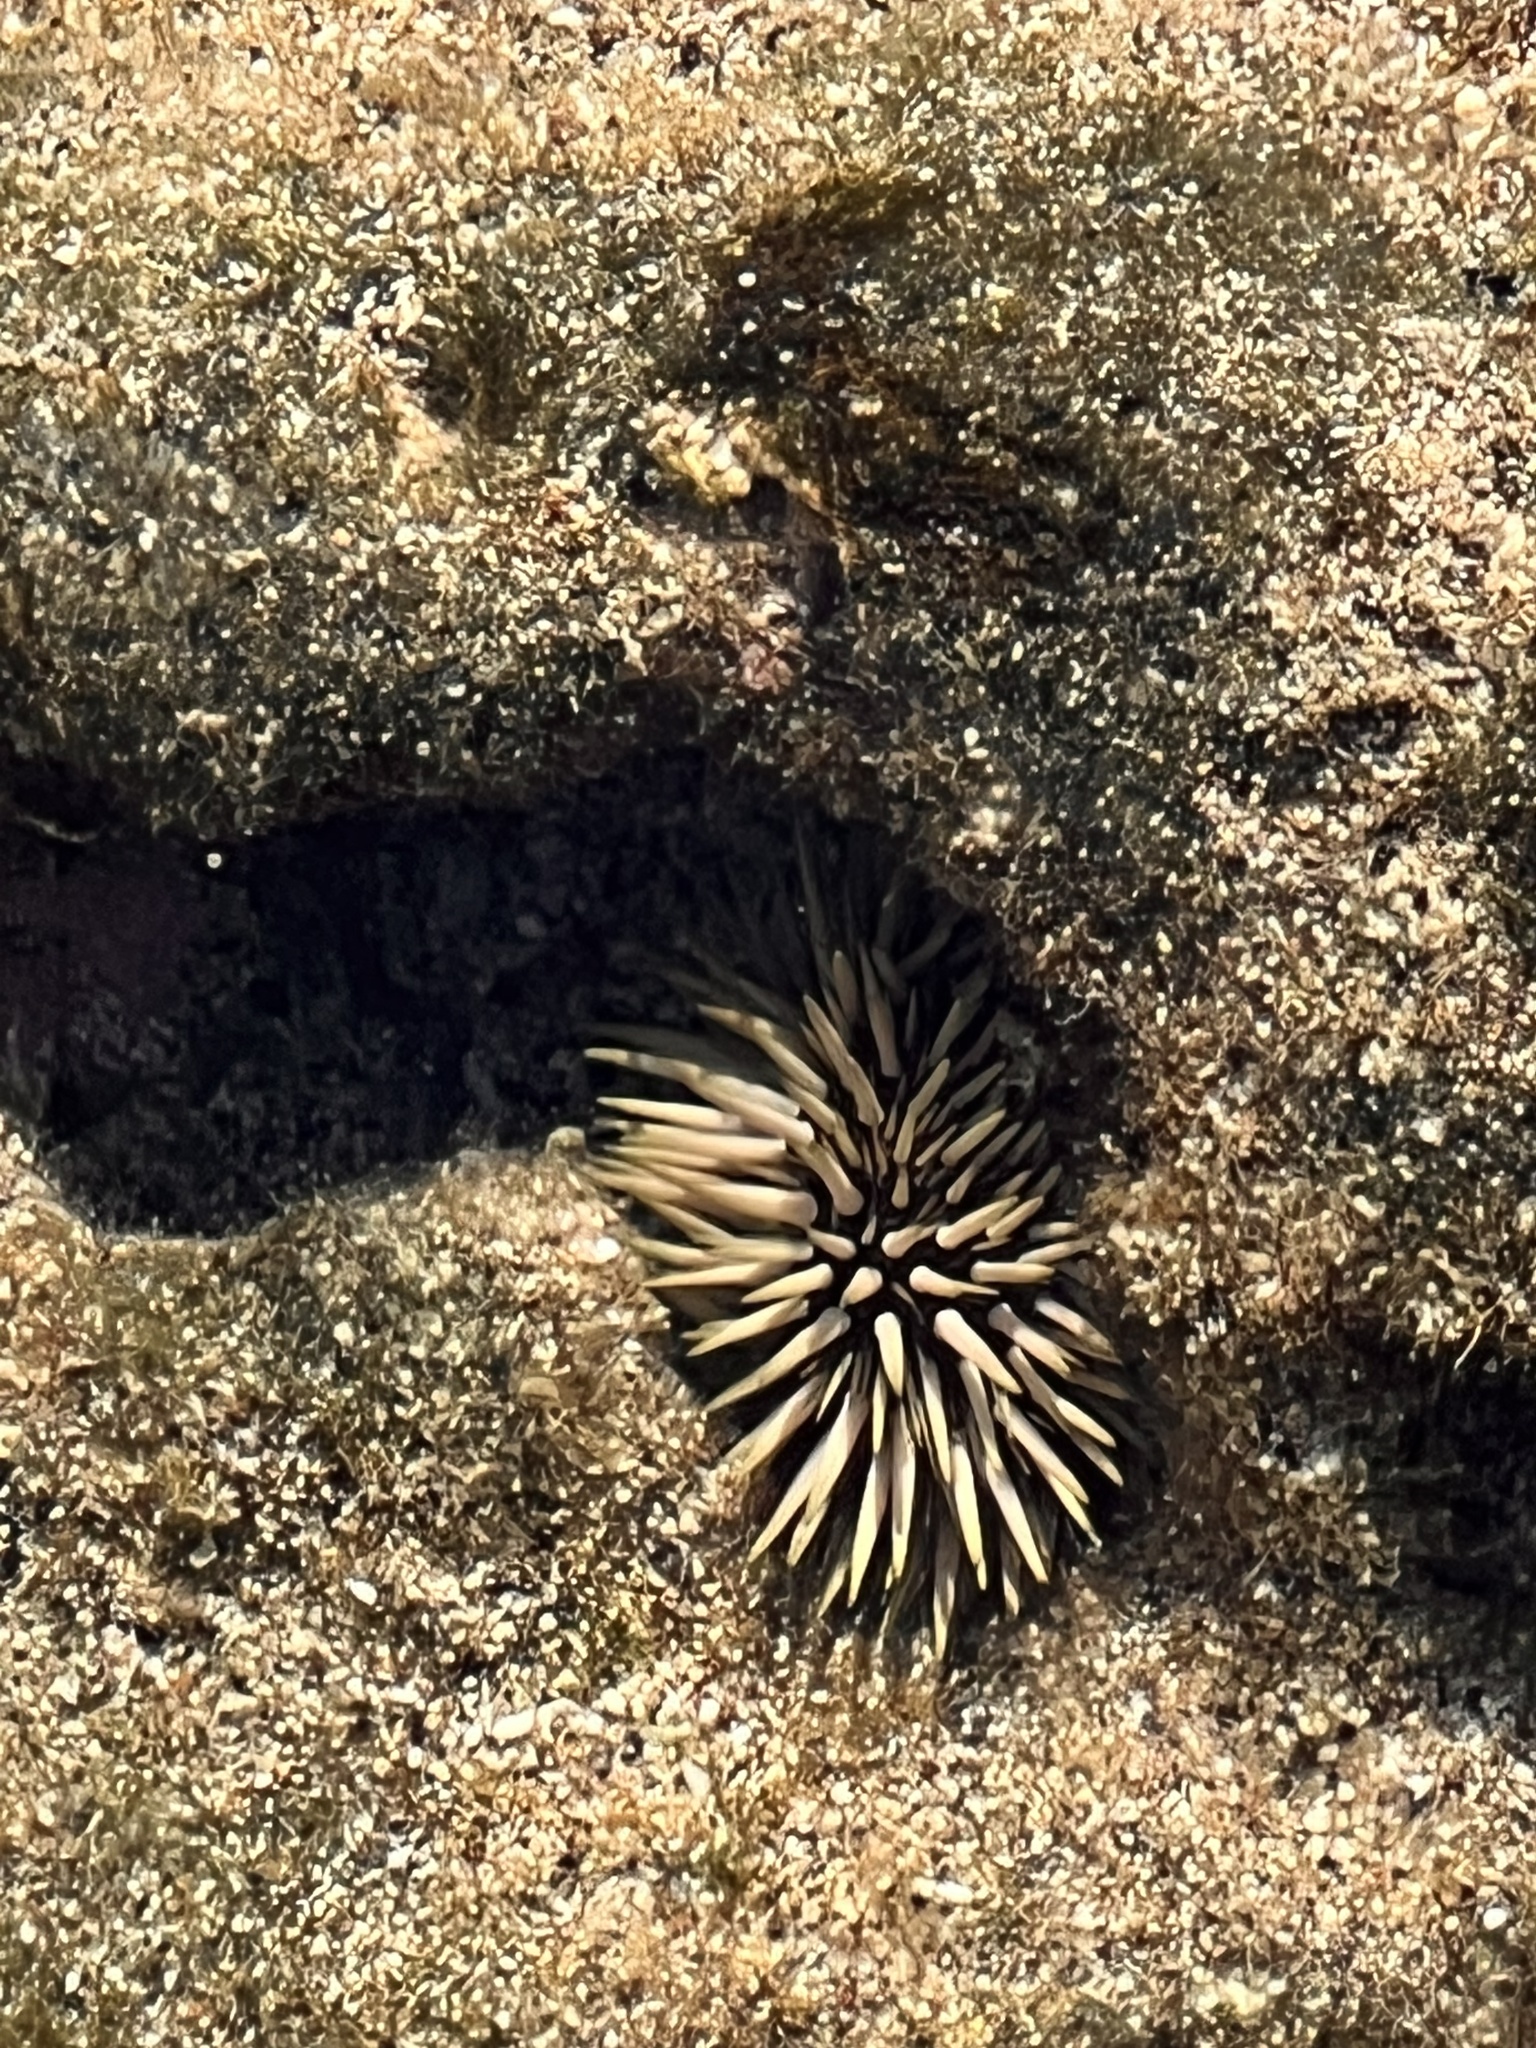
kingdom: Animalia
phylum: Echinodermata
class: Echinoidea
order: Camarodonta
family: Echinometridae
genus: Echinometra
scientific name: Echinometra mathaei
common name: Rock-boring urchin
